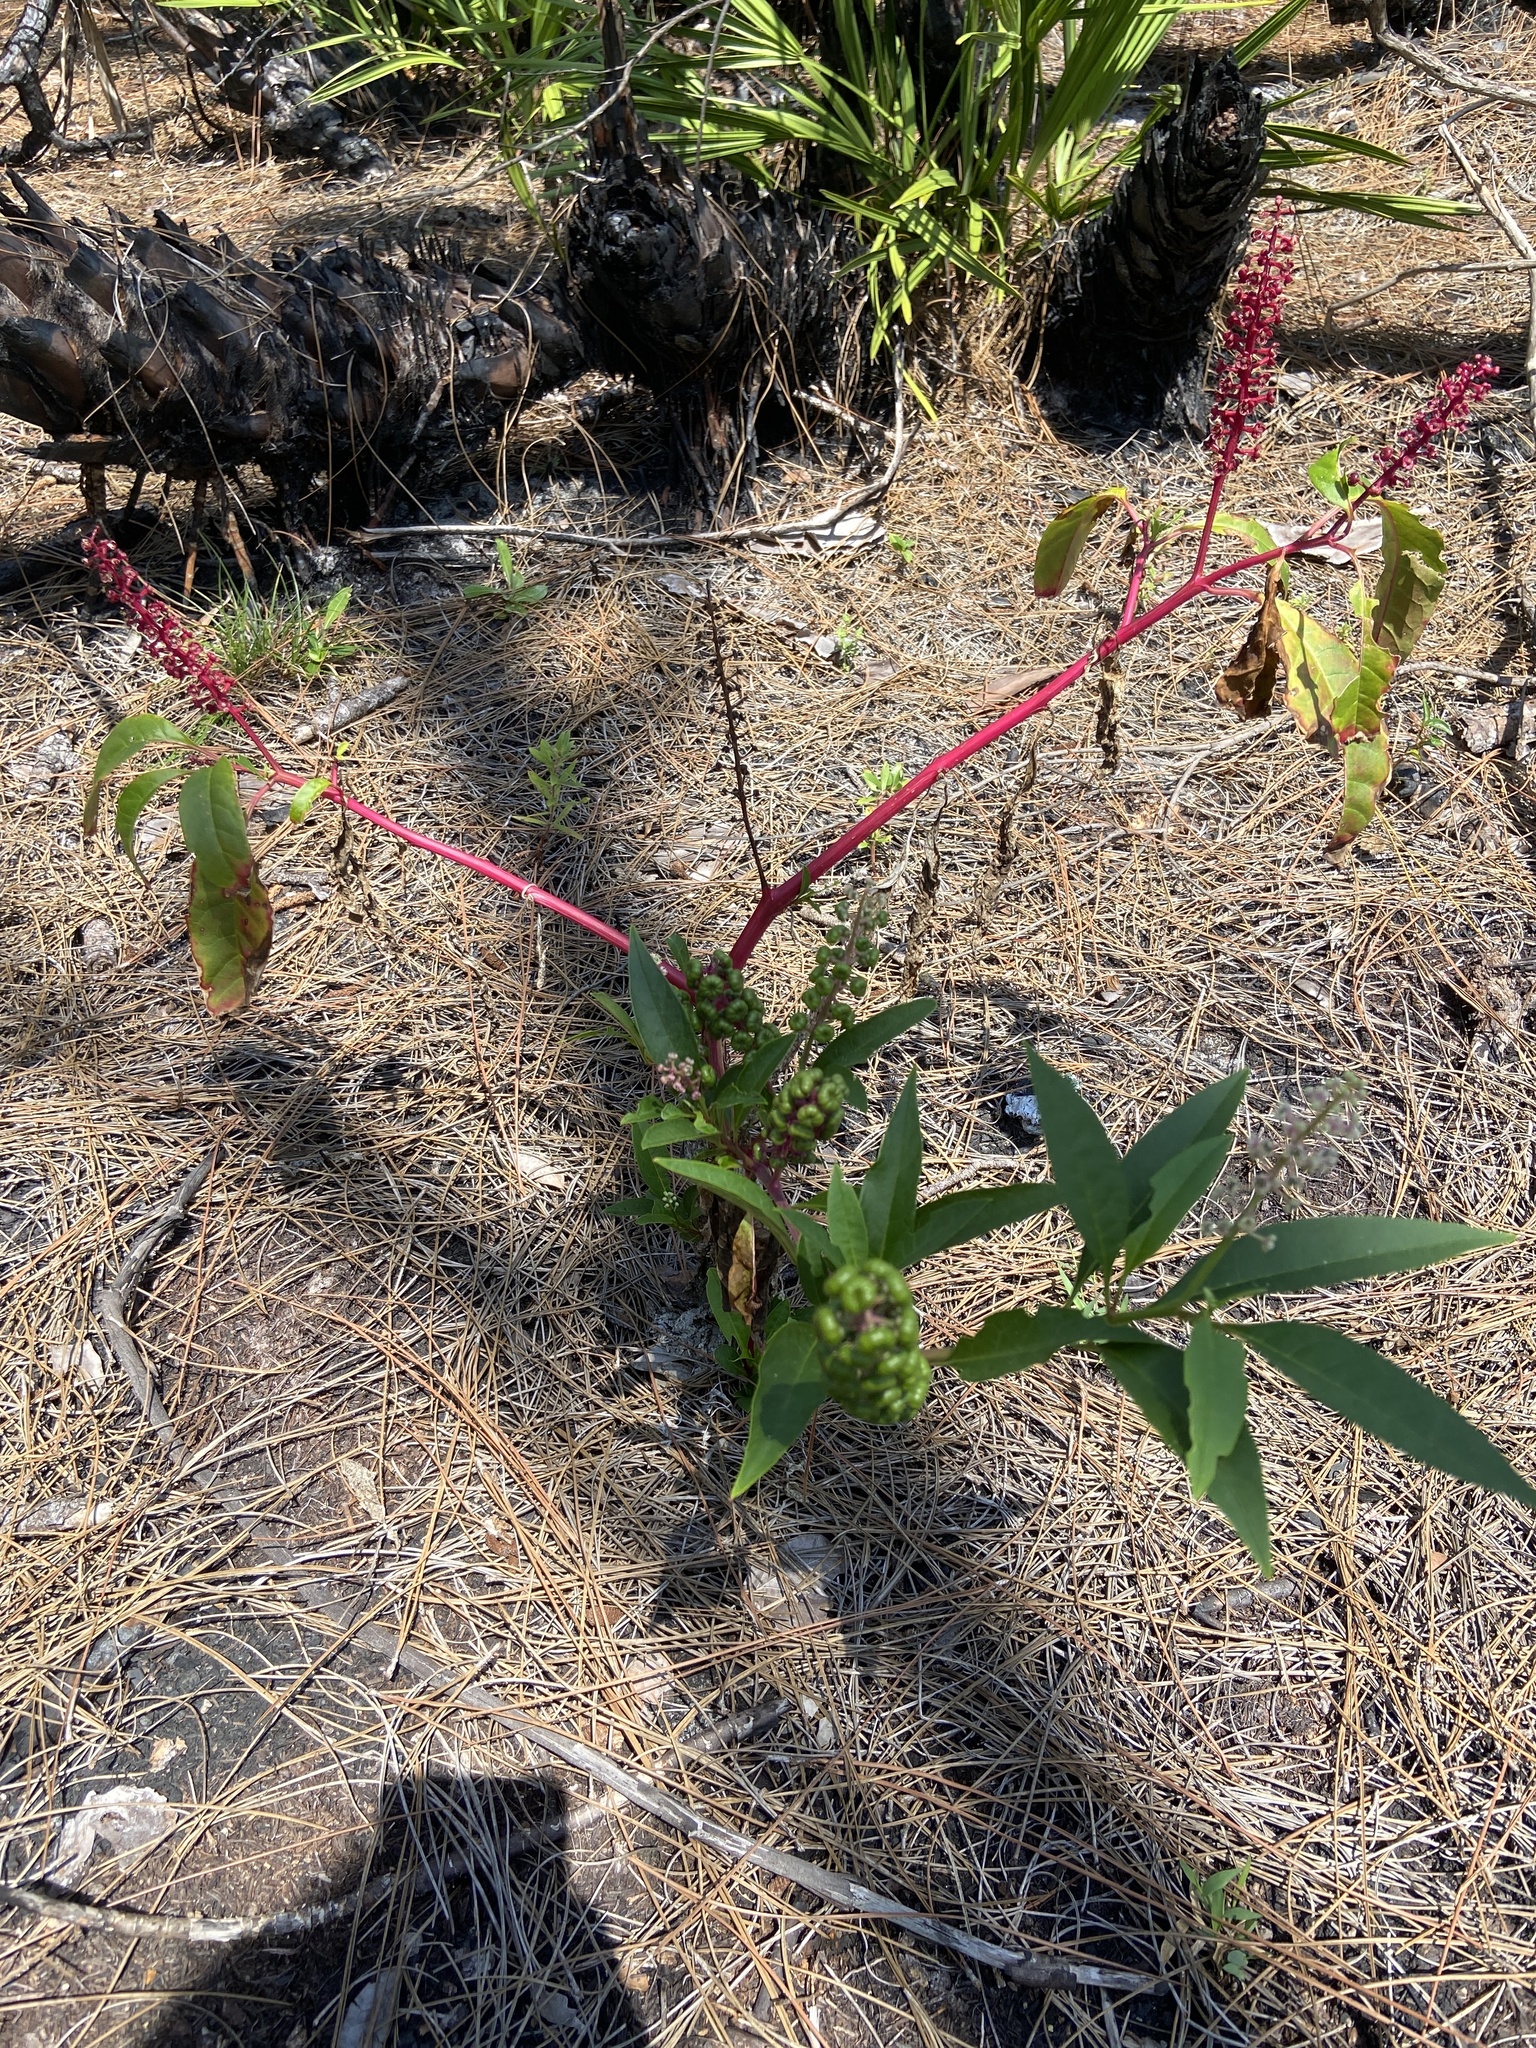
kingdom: Plantae
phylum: Tracheophyta
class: Magnoliopsida
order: Caryophyllales
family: Phytolaccaceae
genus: Phytolacca
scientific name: Phytolacca americana
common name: American pokeweed
